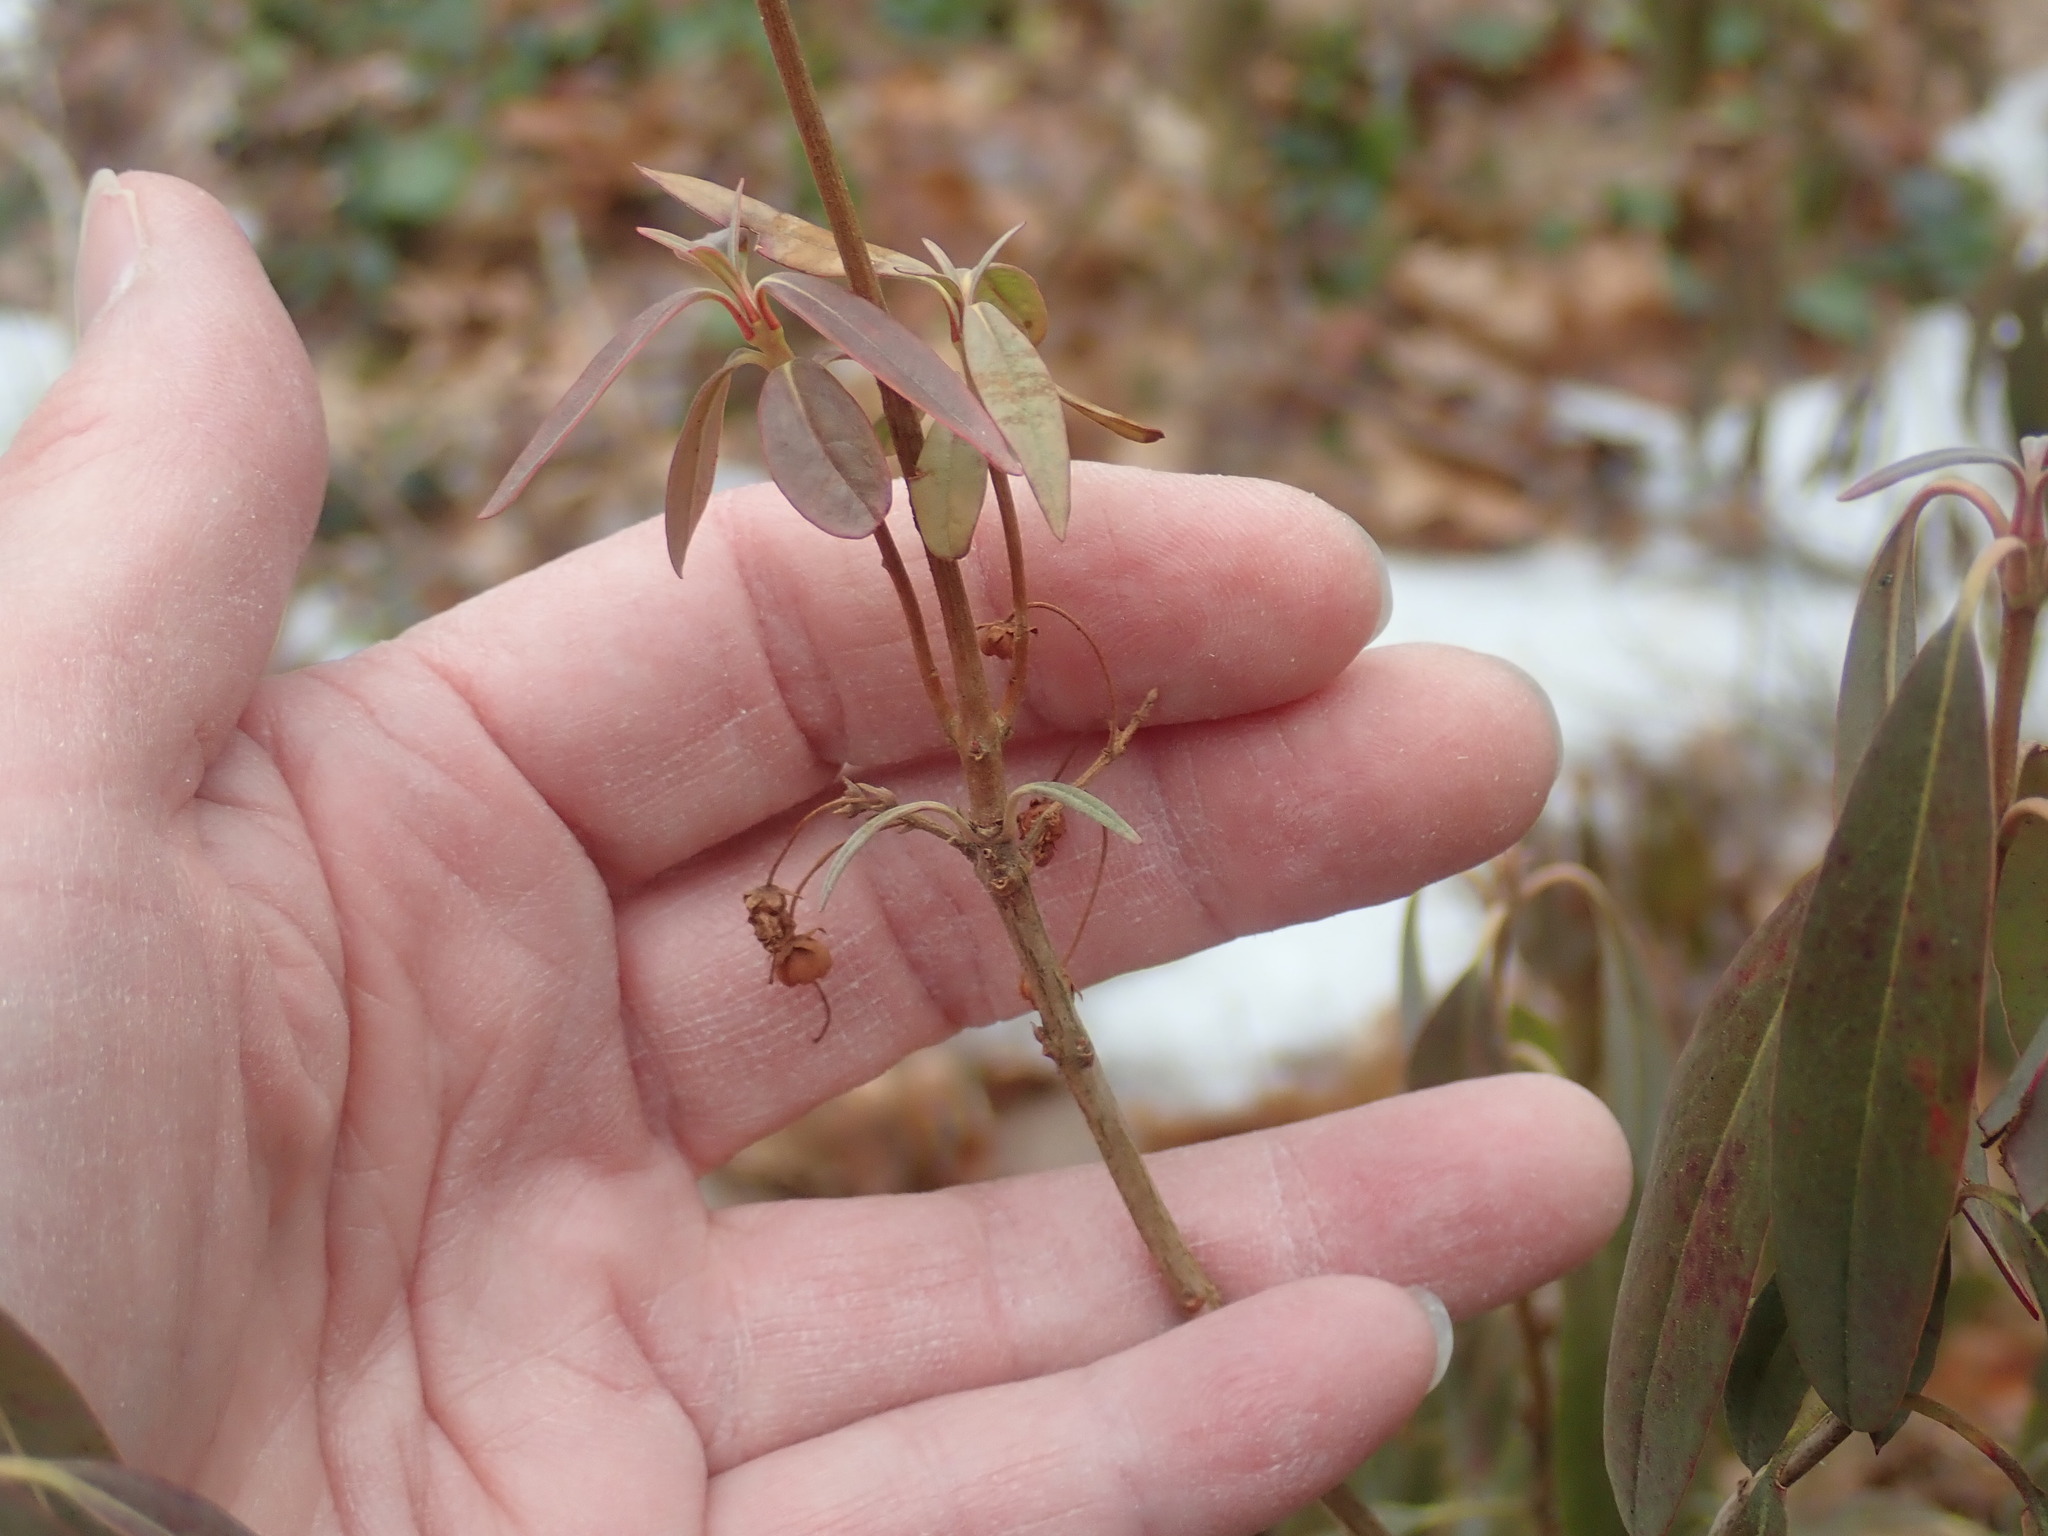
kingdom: Plantae
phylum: Tracheophyta
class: Magnoliopsida
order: Ericales
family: Ericaceae
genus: Kalmia
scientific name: Kalmia angustifolia
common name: Sheep-laurel
